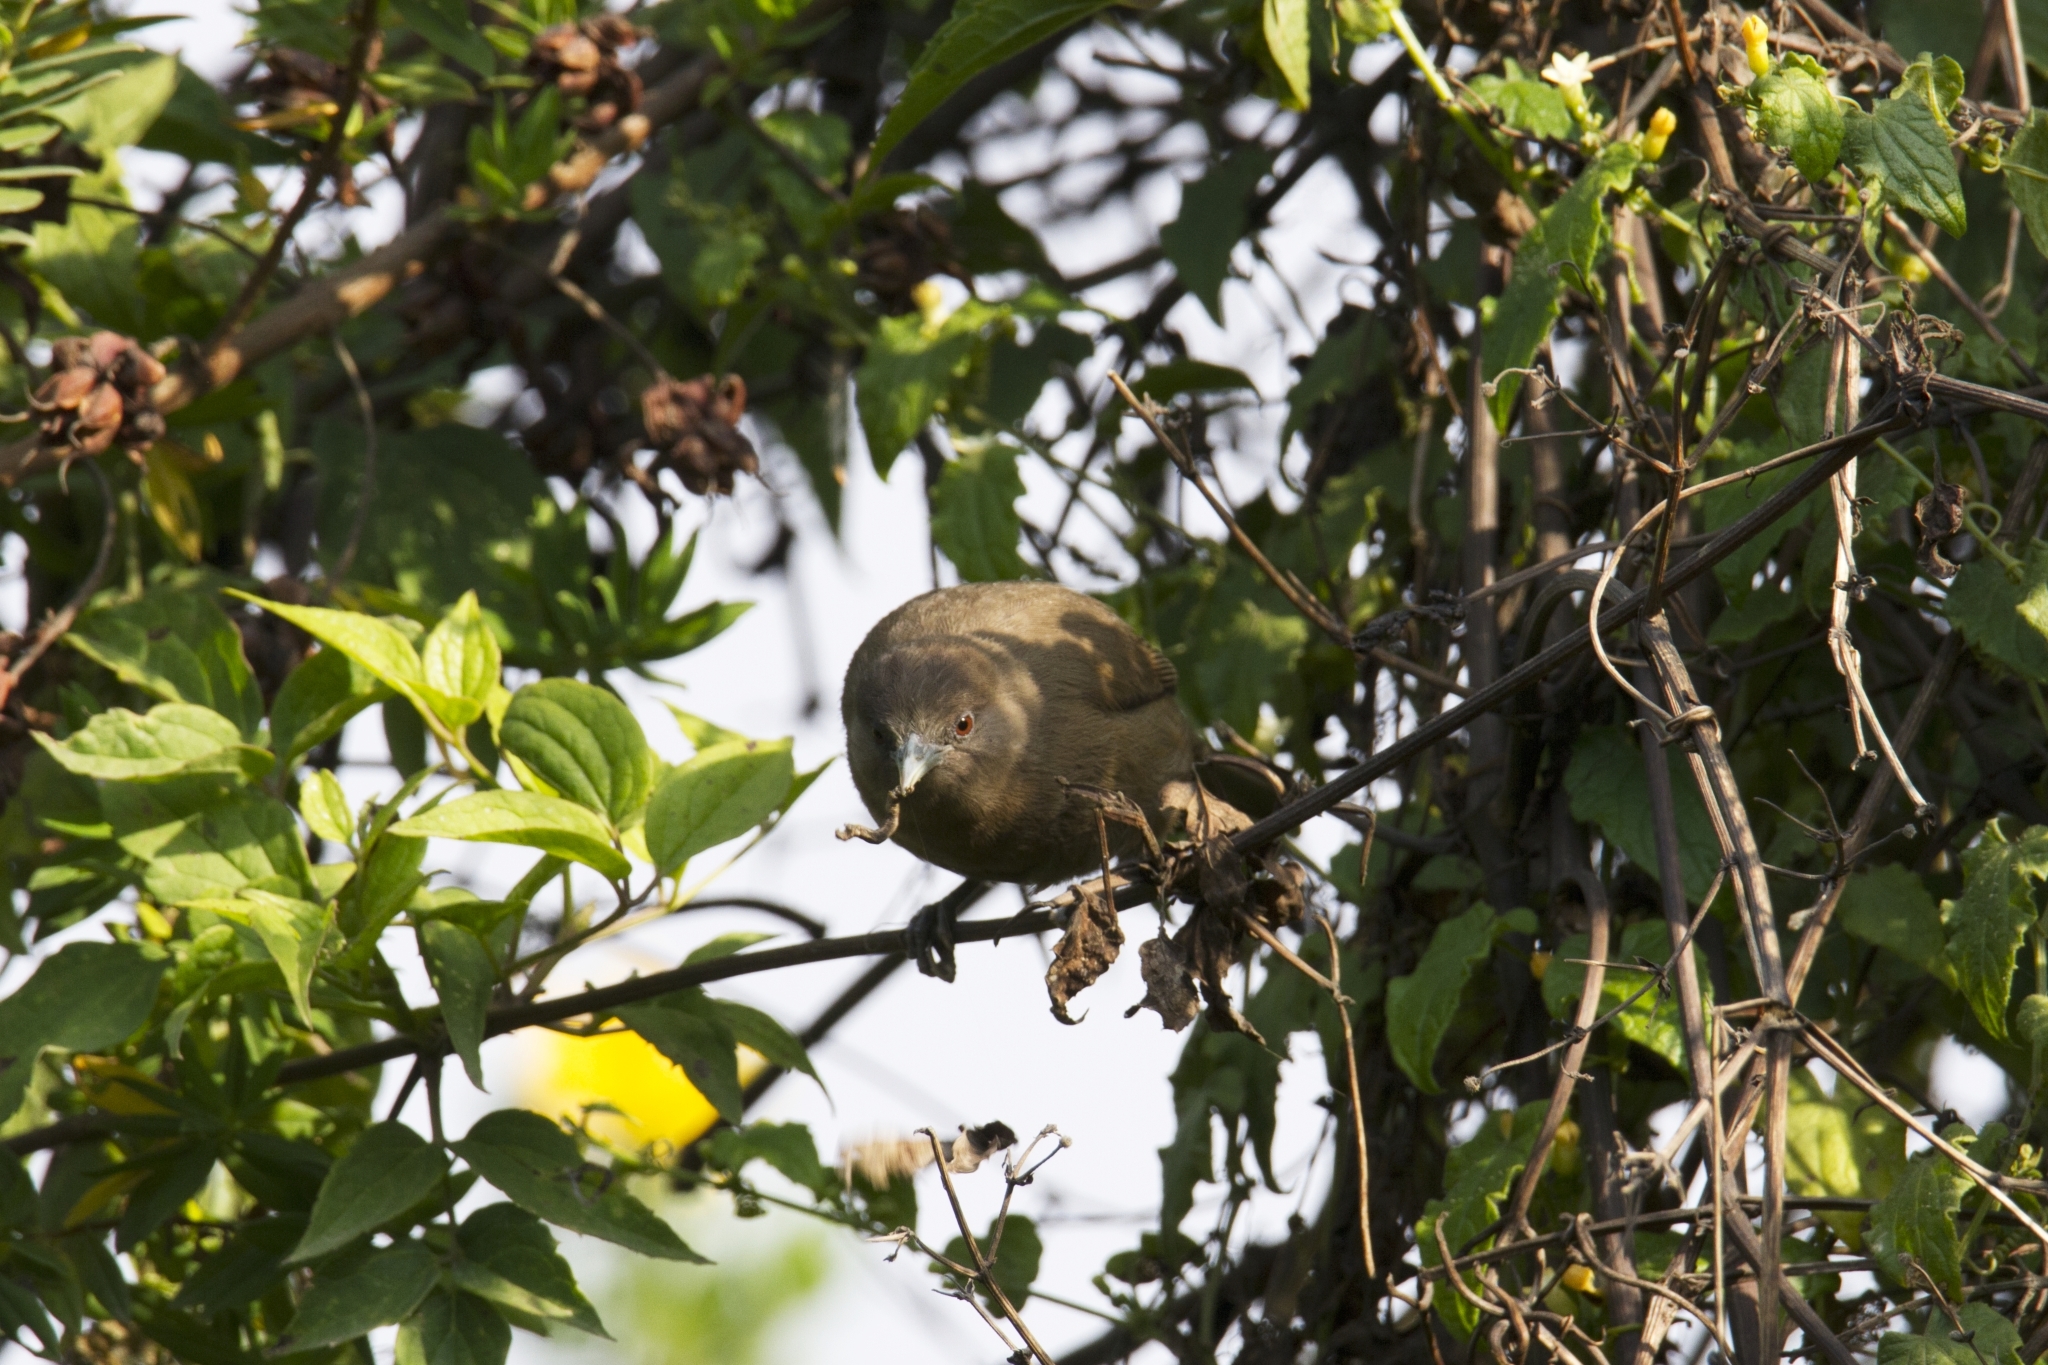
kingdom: Animalia
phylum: Chordata
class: Aves
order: Passeriformes
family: Zosteropidae
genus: Zosterops
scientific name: Zosterops brunneus
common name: Fernando po speirops
